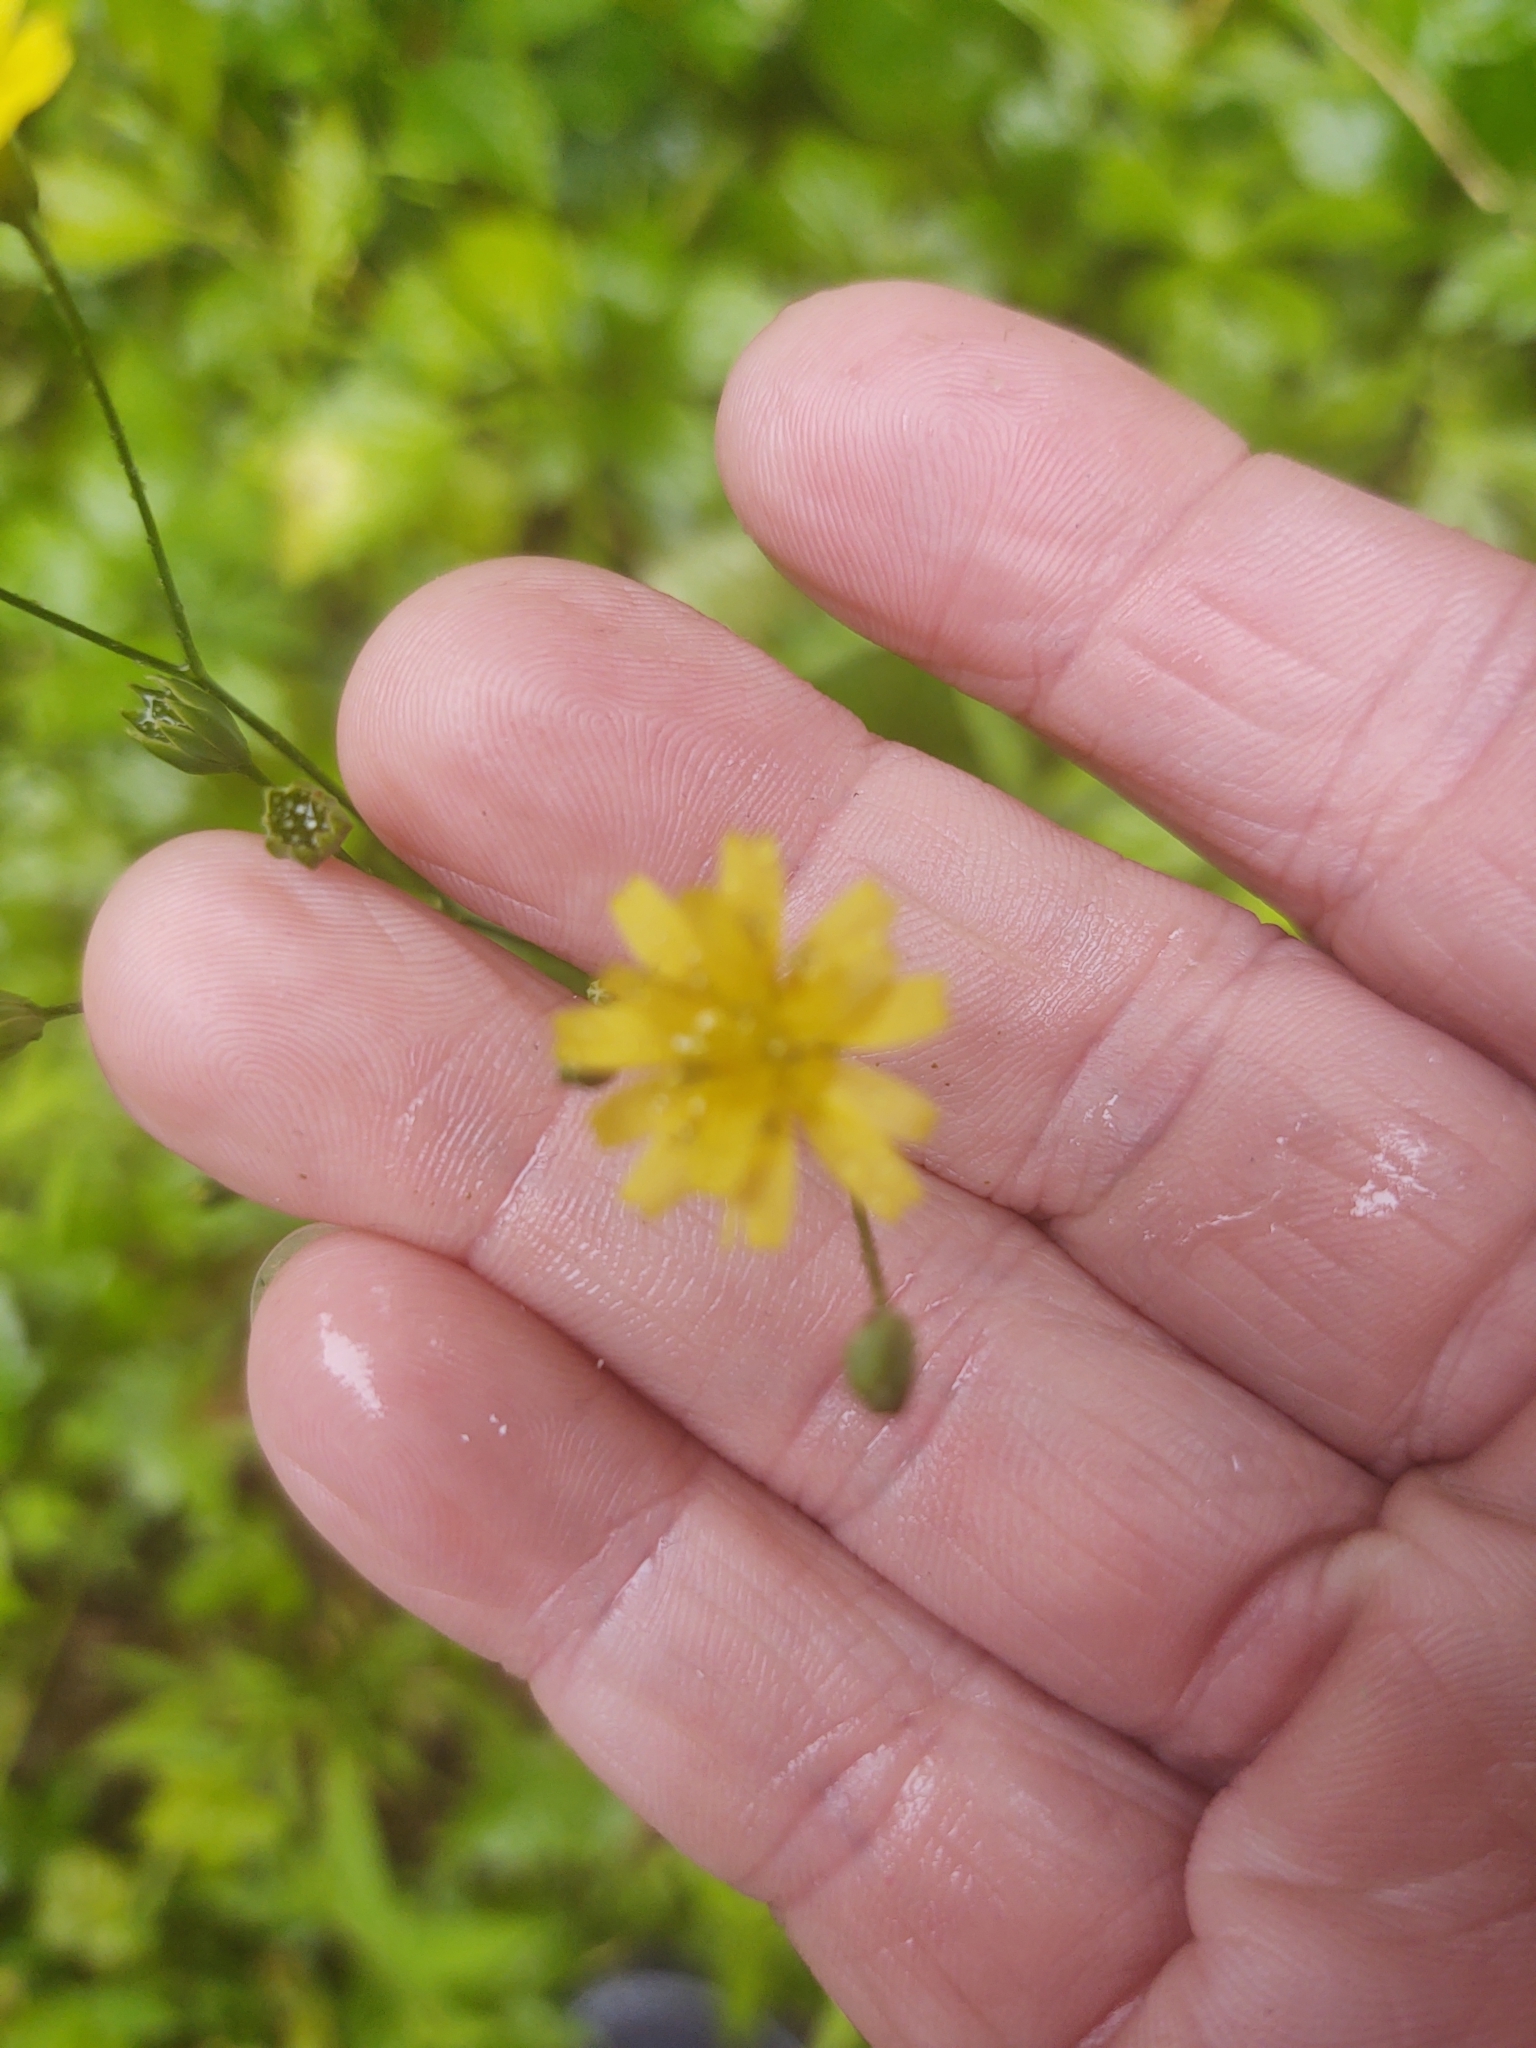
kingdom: Plantae
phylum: Tracheophyta
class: Magnoliopsida
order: Asterales
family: Asteraceae
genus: Lapsana
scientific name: Lapsana communis
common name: Nipplewort
